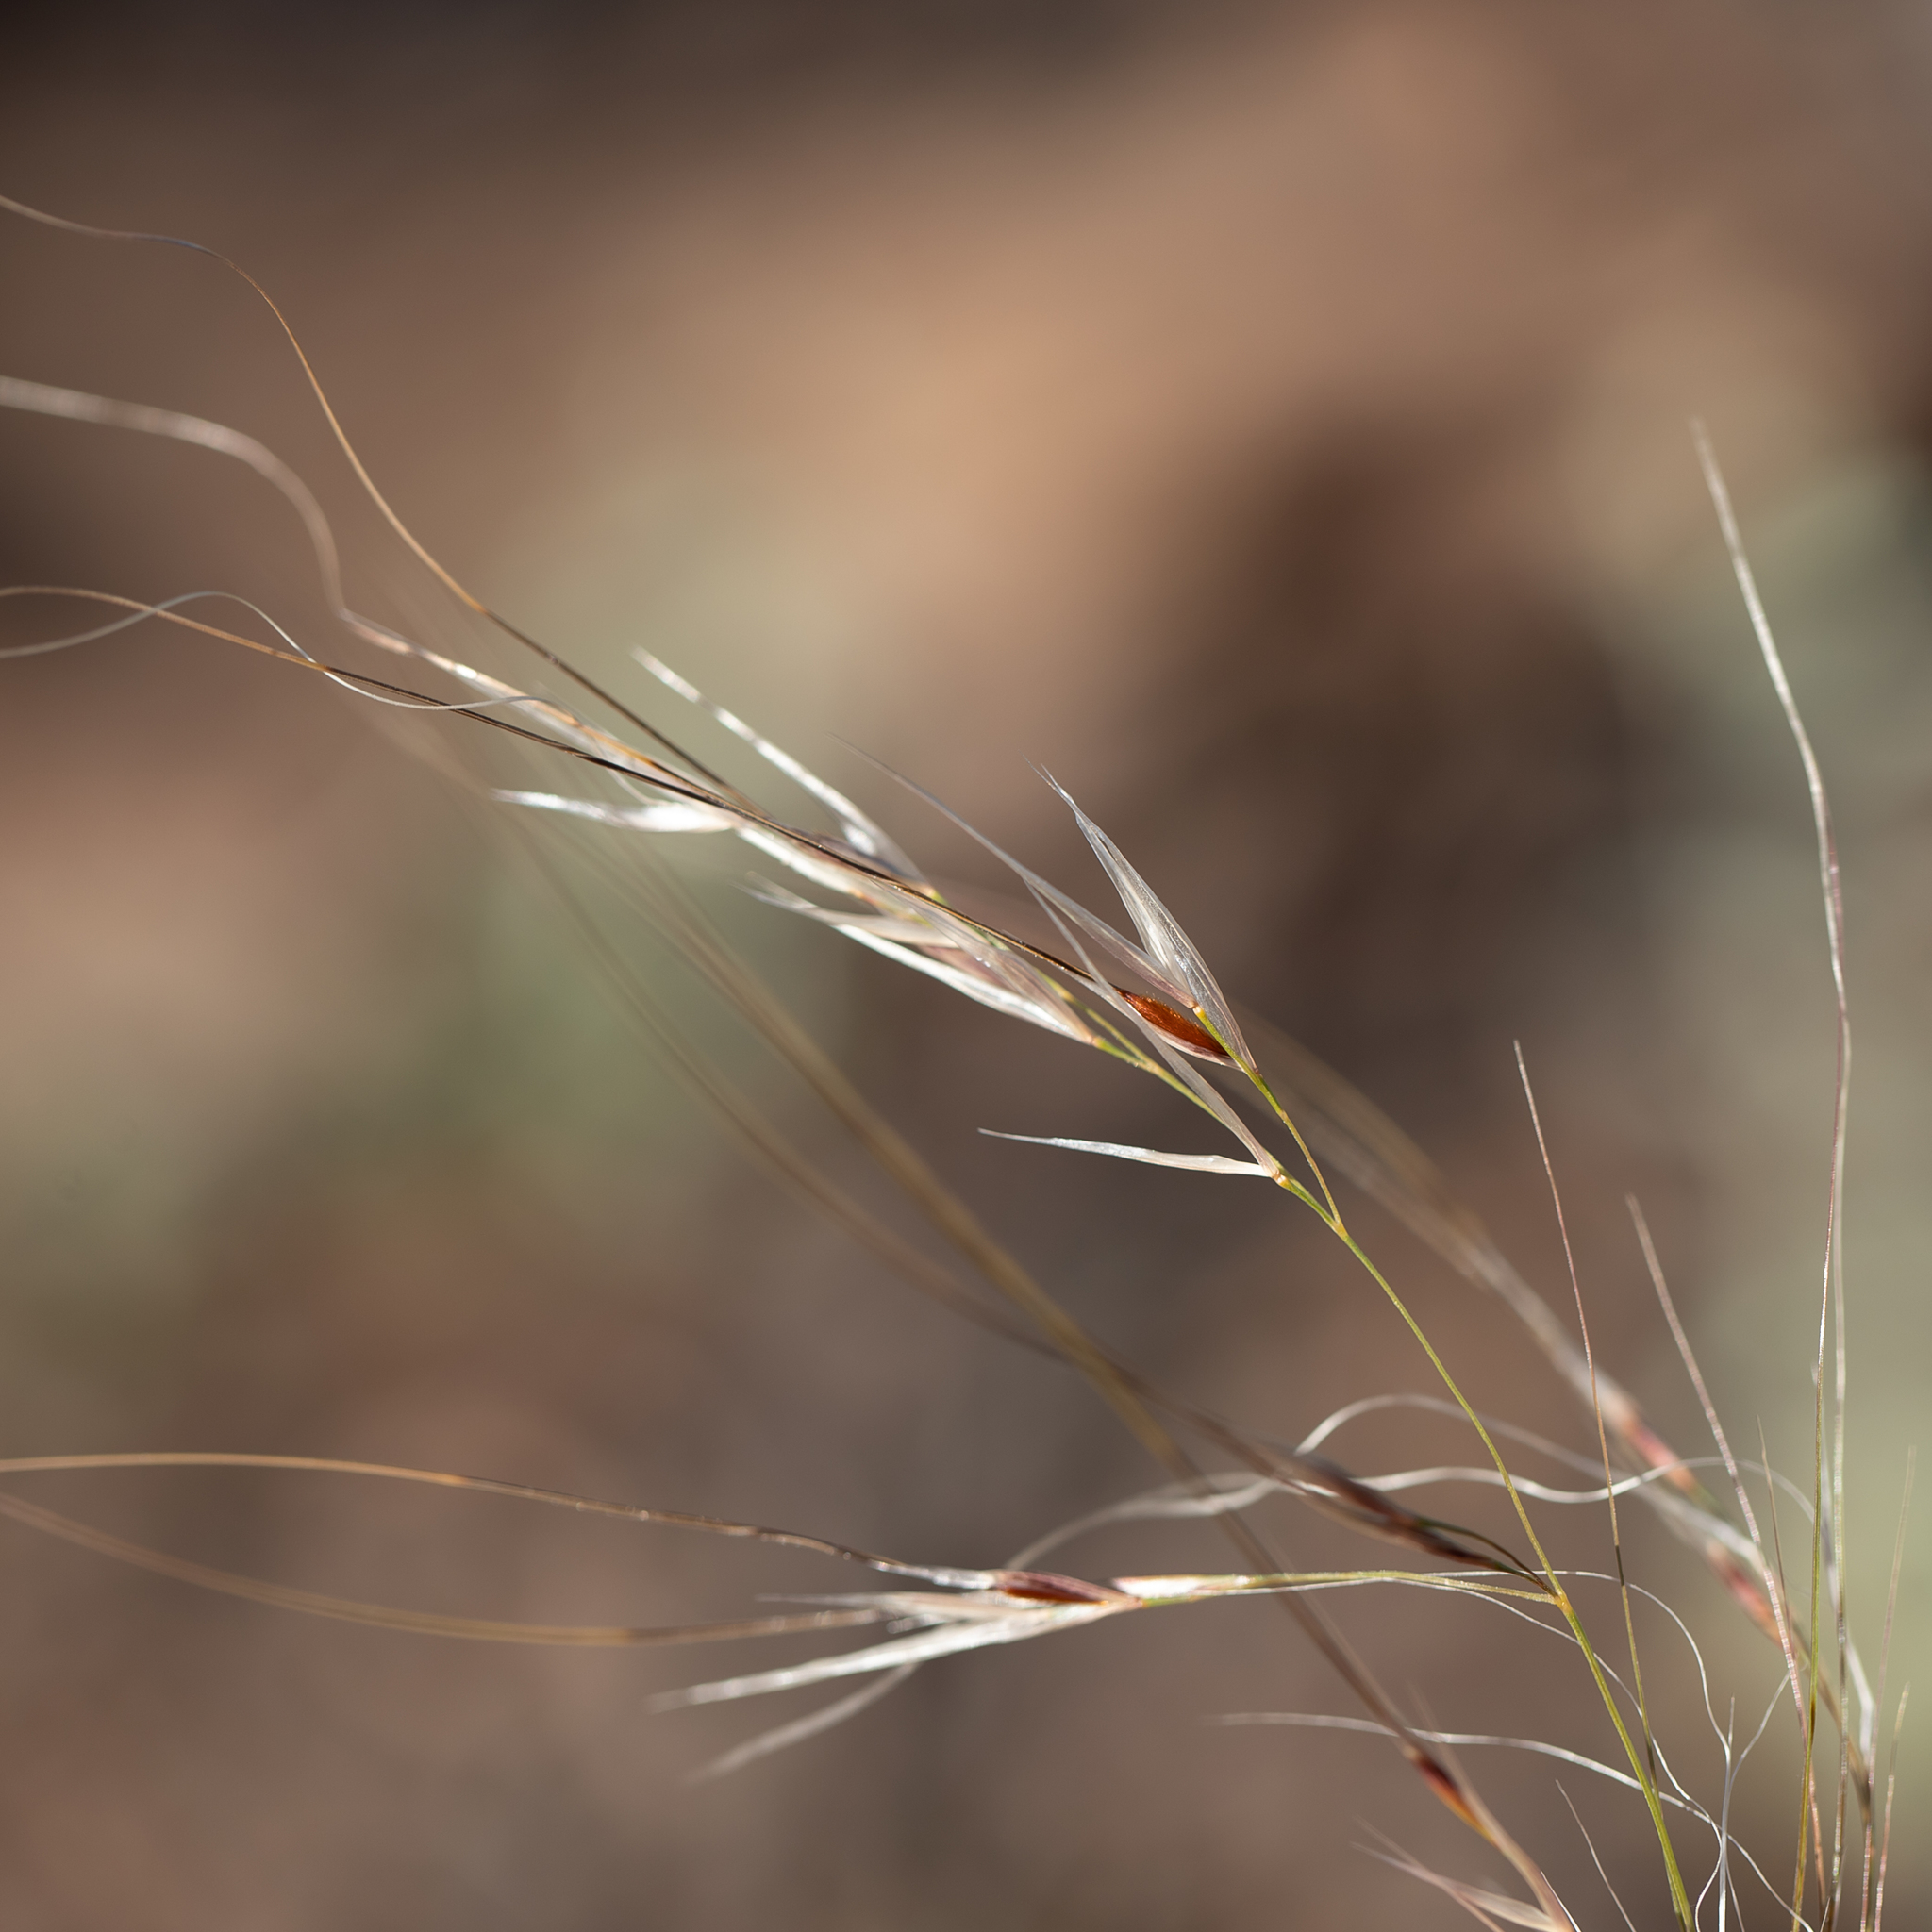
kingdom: Plantae
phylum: Tracheophyta
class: Liliopsida
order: Poales
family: Poaceae
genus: Austrostipa
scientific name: Austrostipa eremophila
